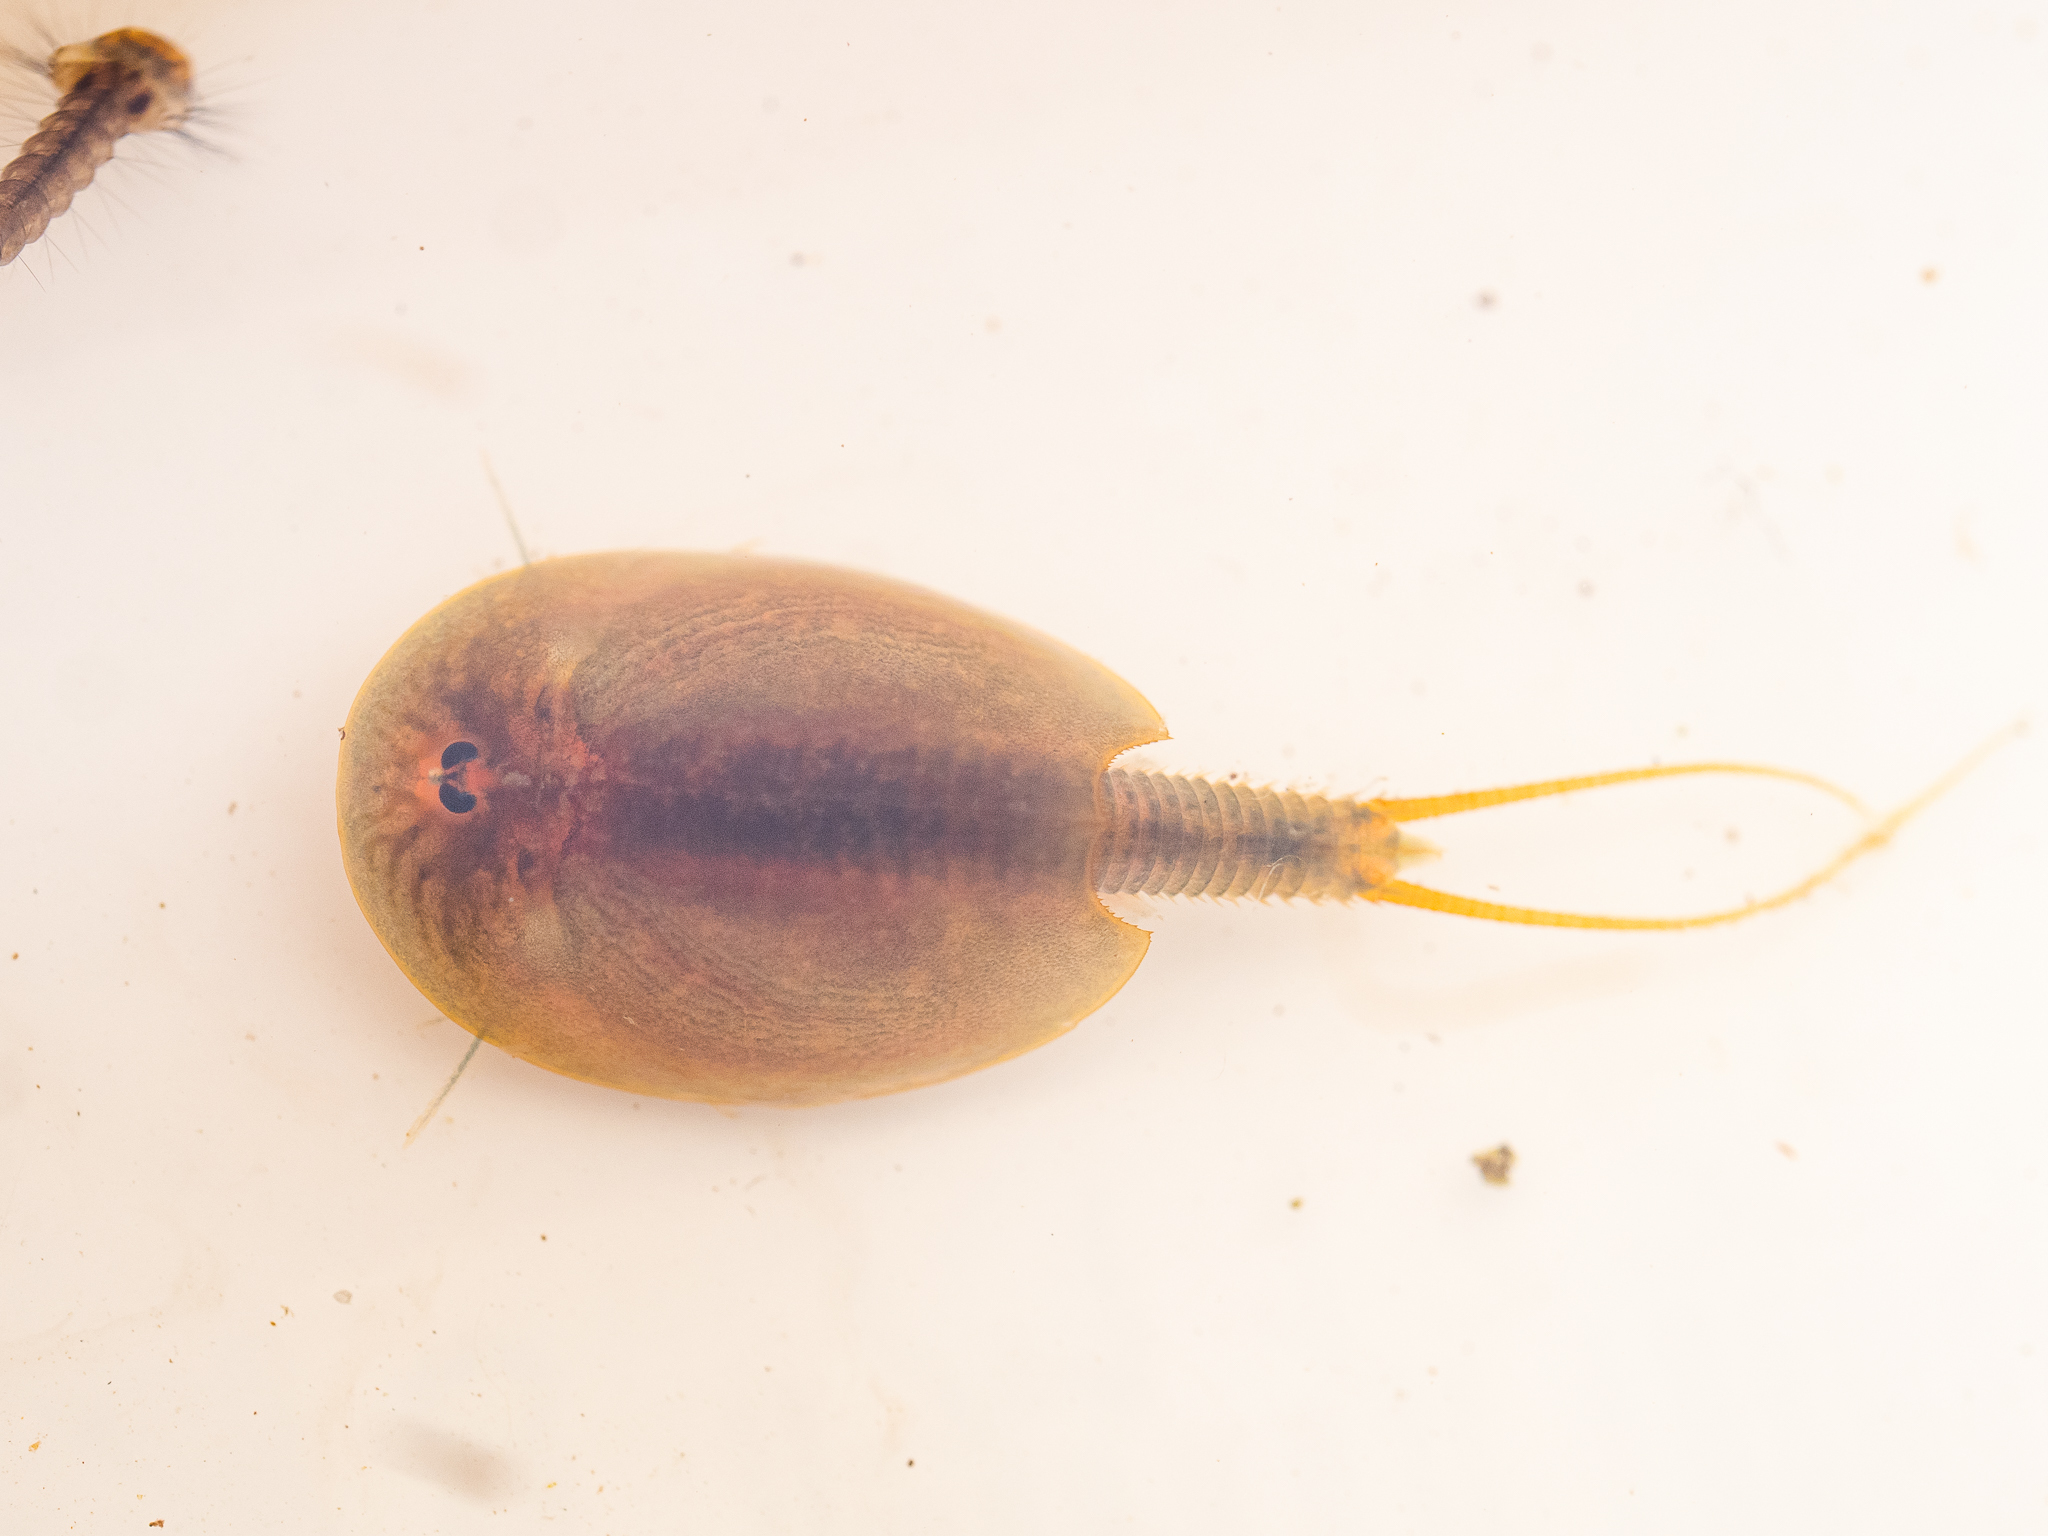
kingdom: Animalia
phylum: Arthropoda
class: Branchiopoda
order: Notostraca
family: Triopsidae
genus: Lepidurus
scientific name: Lepidurus apus
